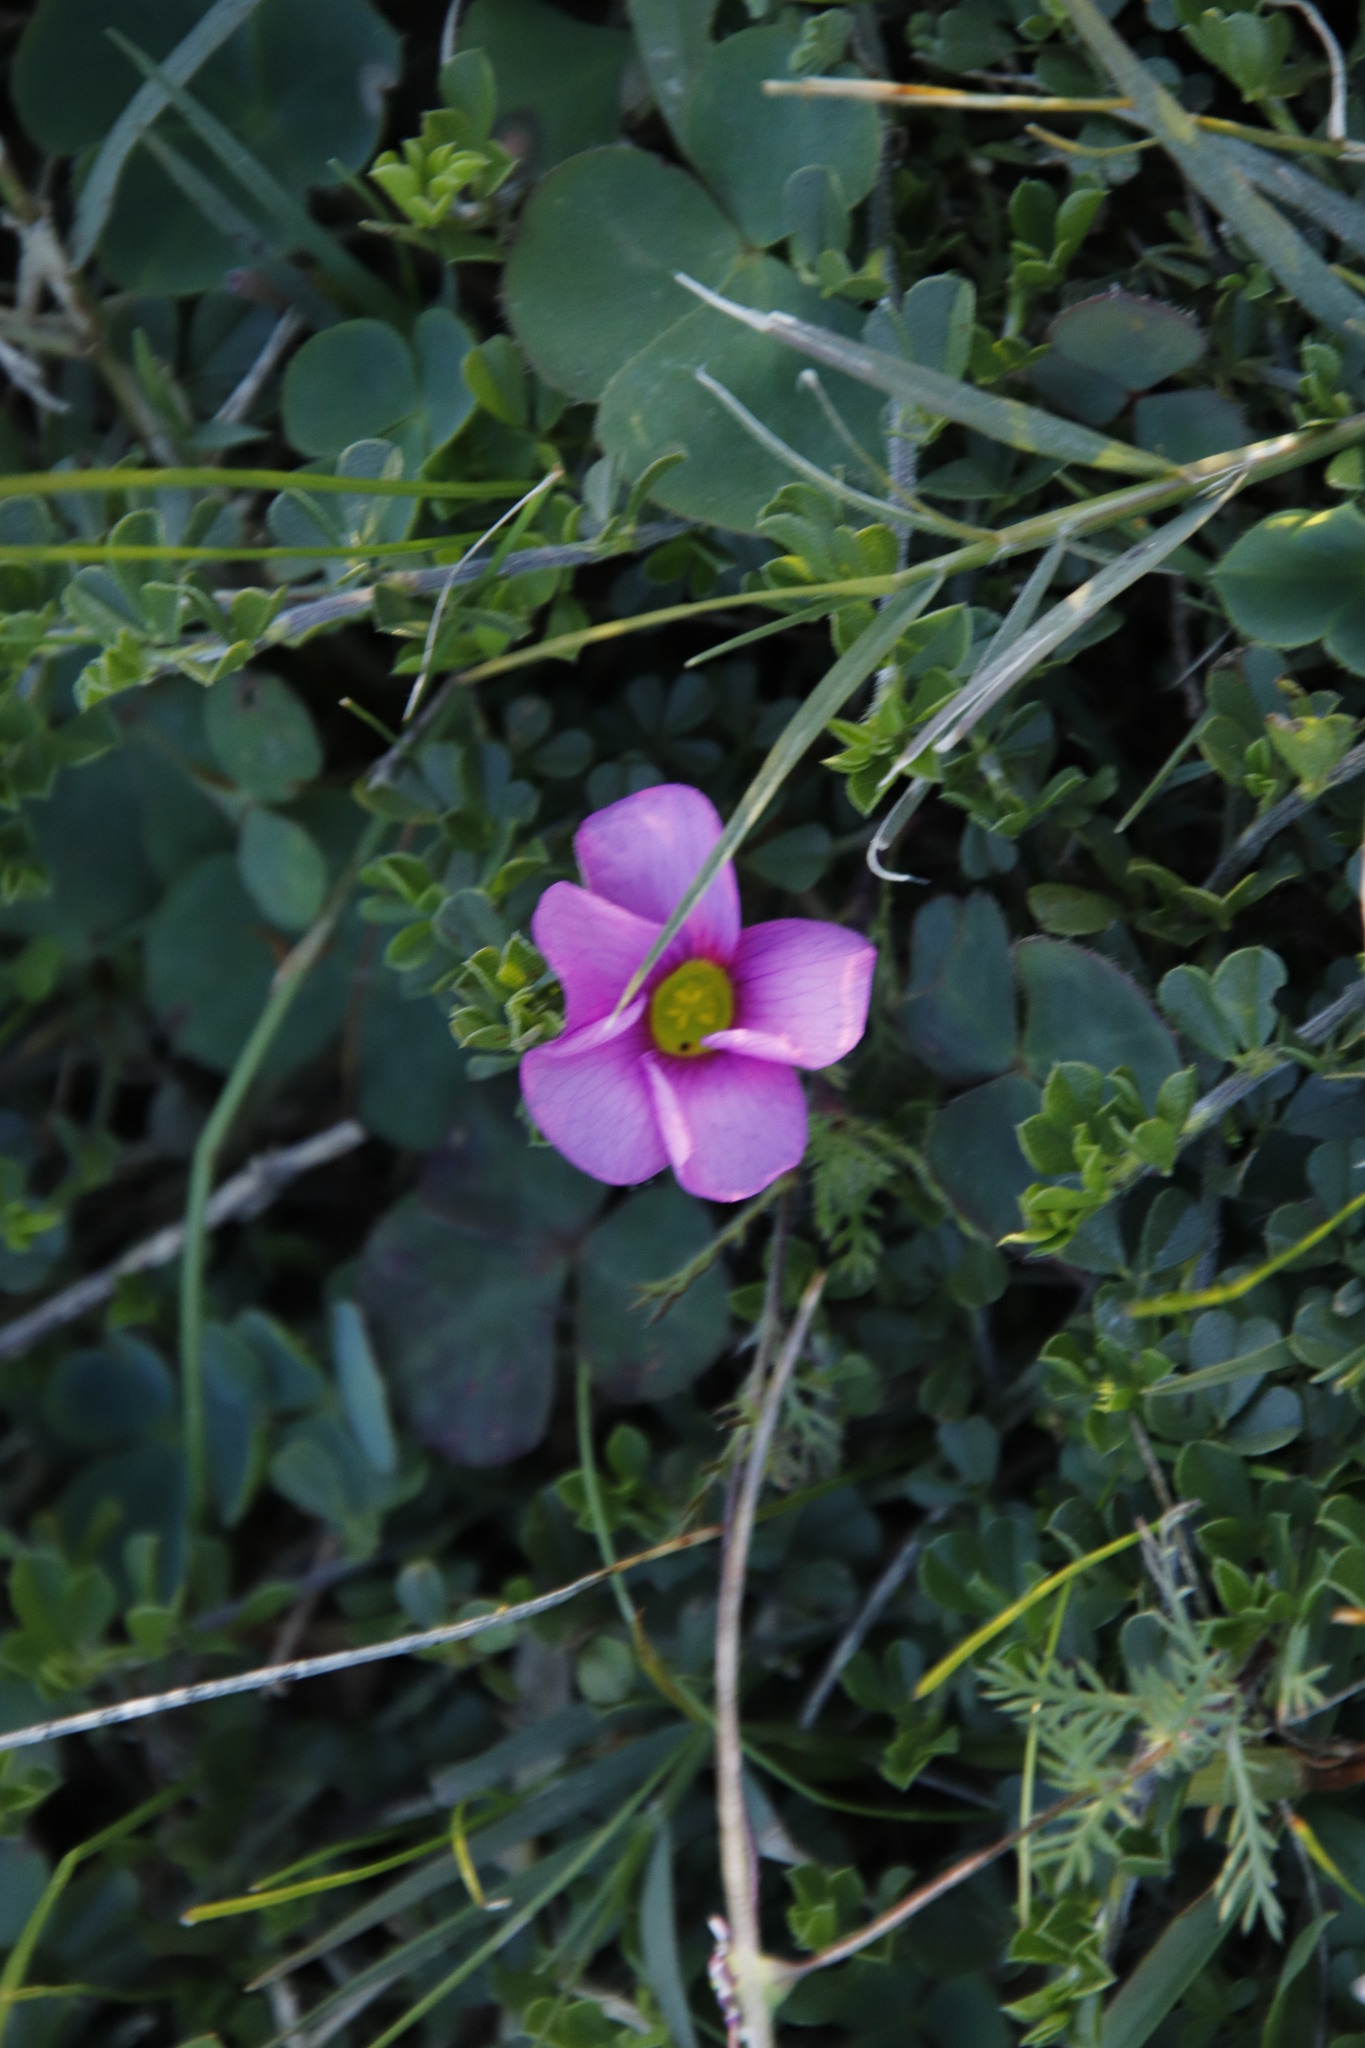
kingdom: Plantae
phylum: Tracheophyta
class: Magnoliopsida
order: Oxalidales
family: Oxalidaceae
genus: Oxalis
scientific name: Oxalis purpurea
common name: Purple woodsorrel
